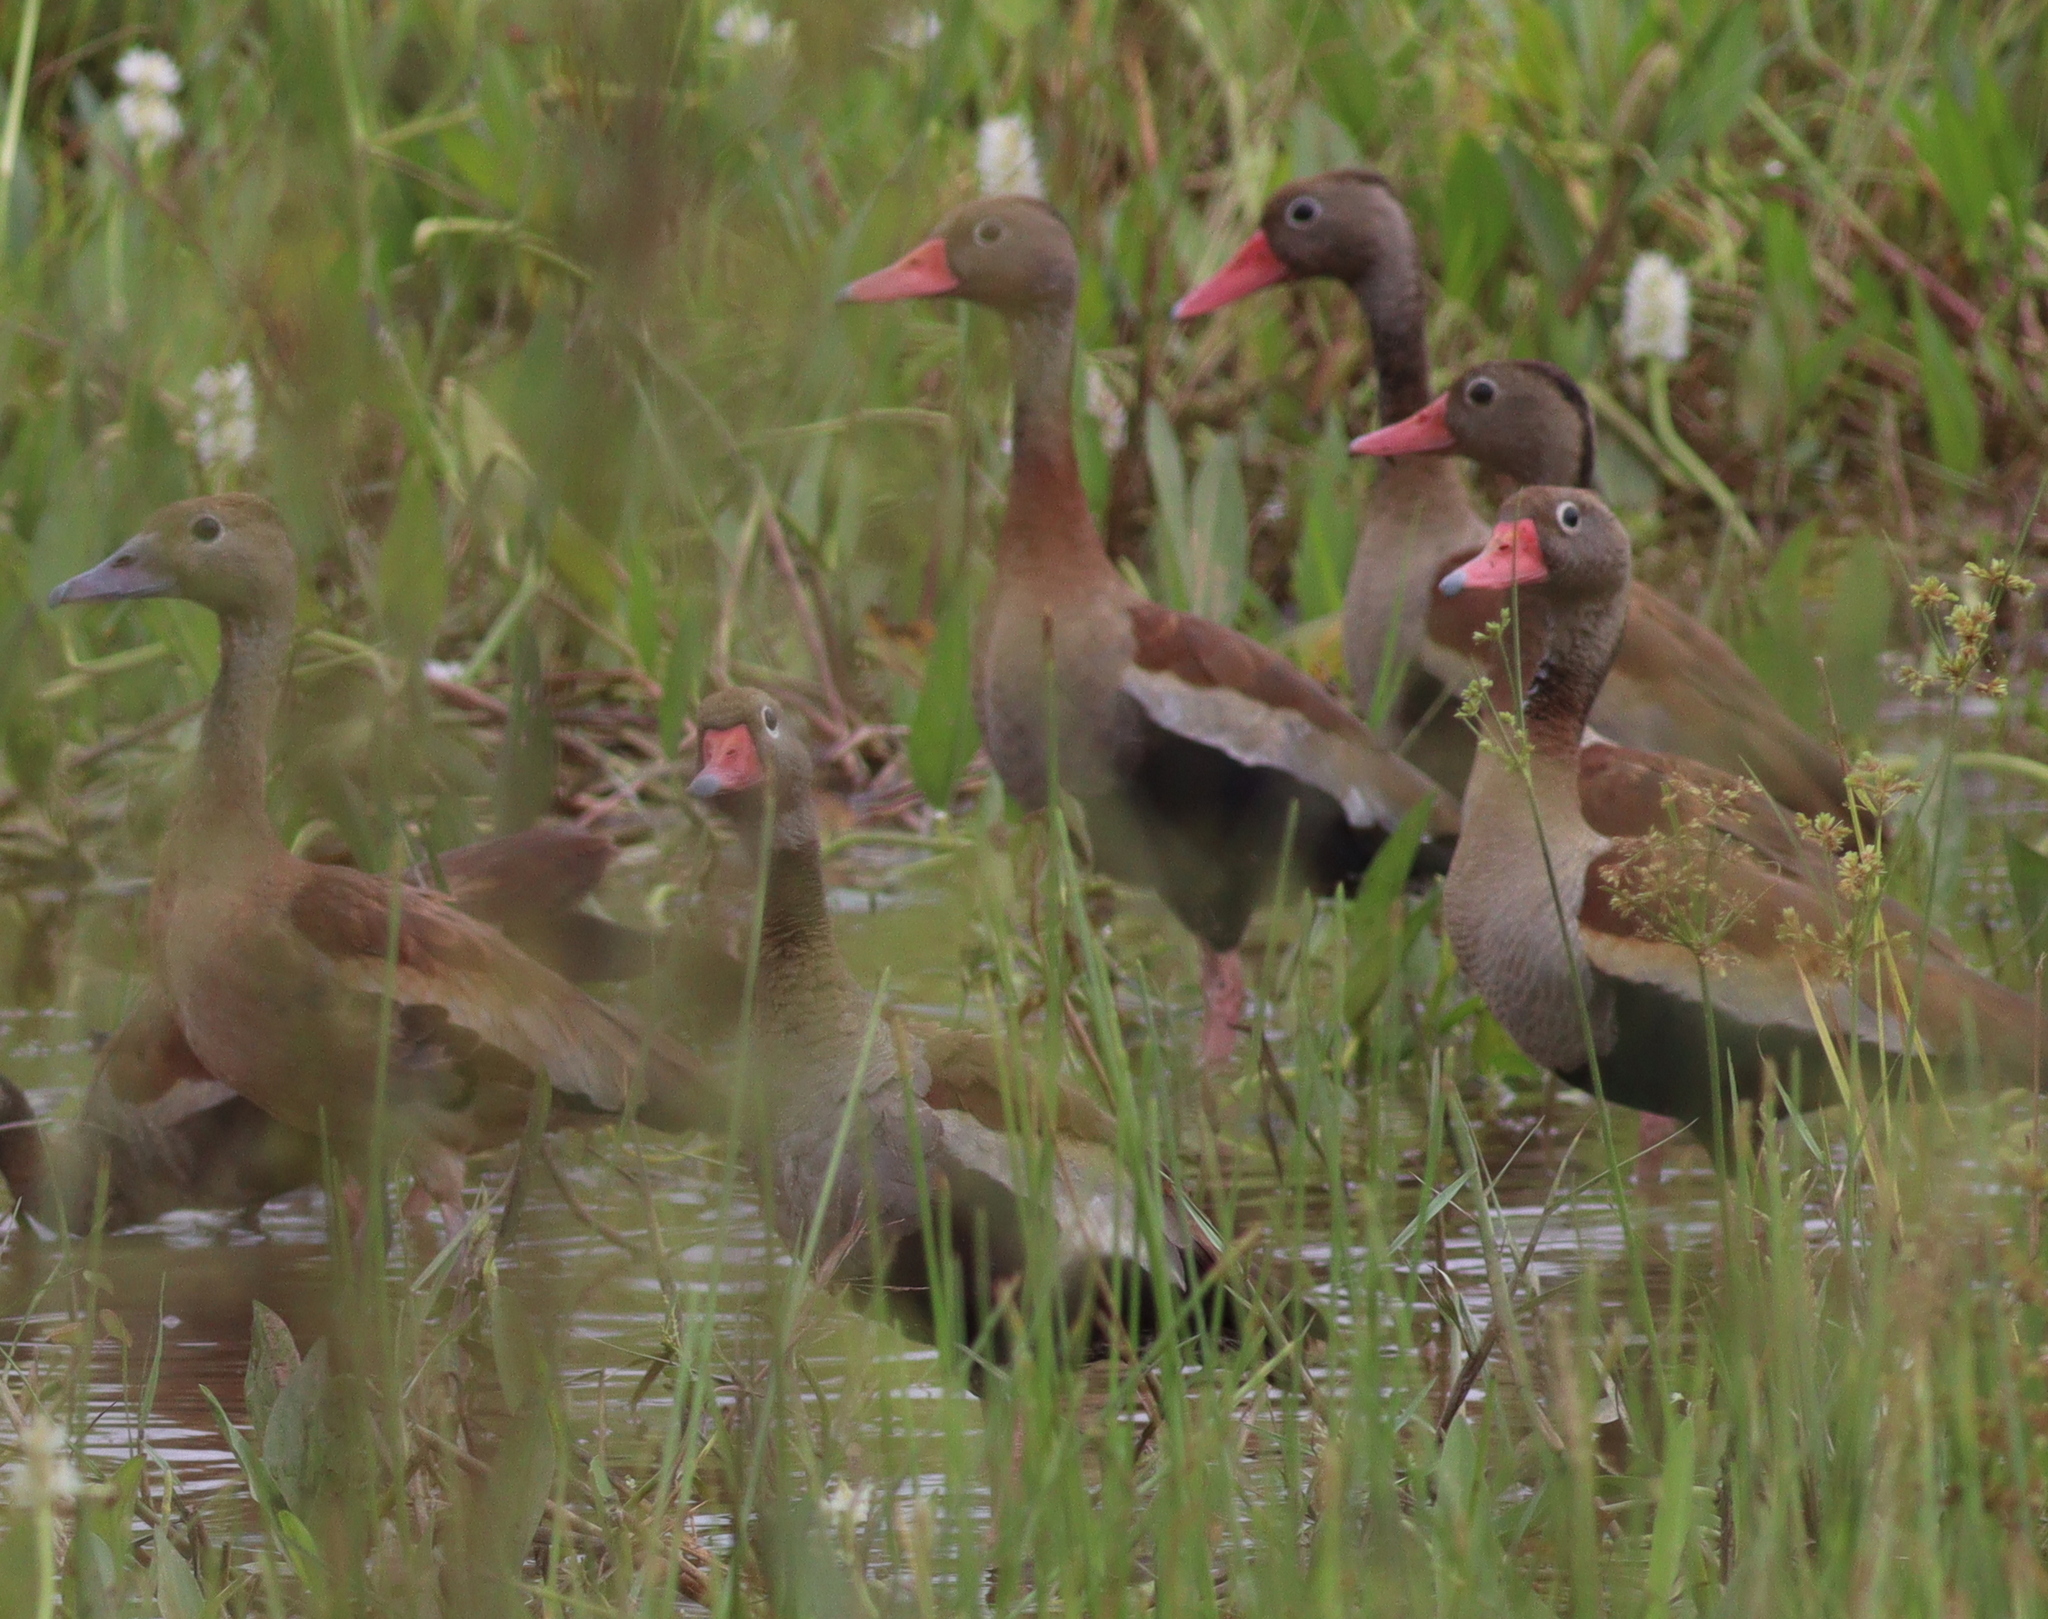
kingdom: Animalia
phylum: Chordata
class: Aves
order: Anseriformes
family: Anatidae
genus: Dendrocygna
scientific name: Dendrocygna autumnalis
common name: Black-bellied whistling duck
